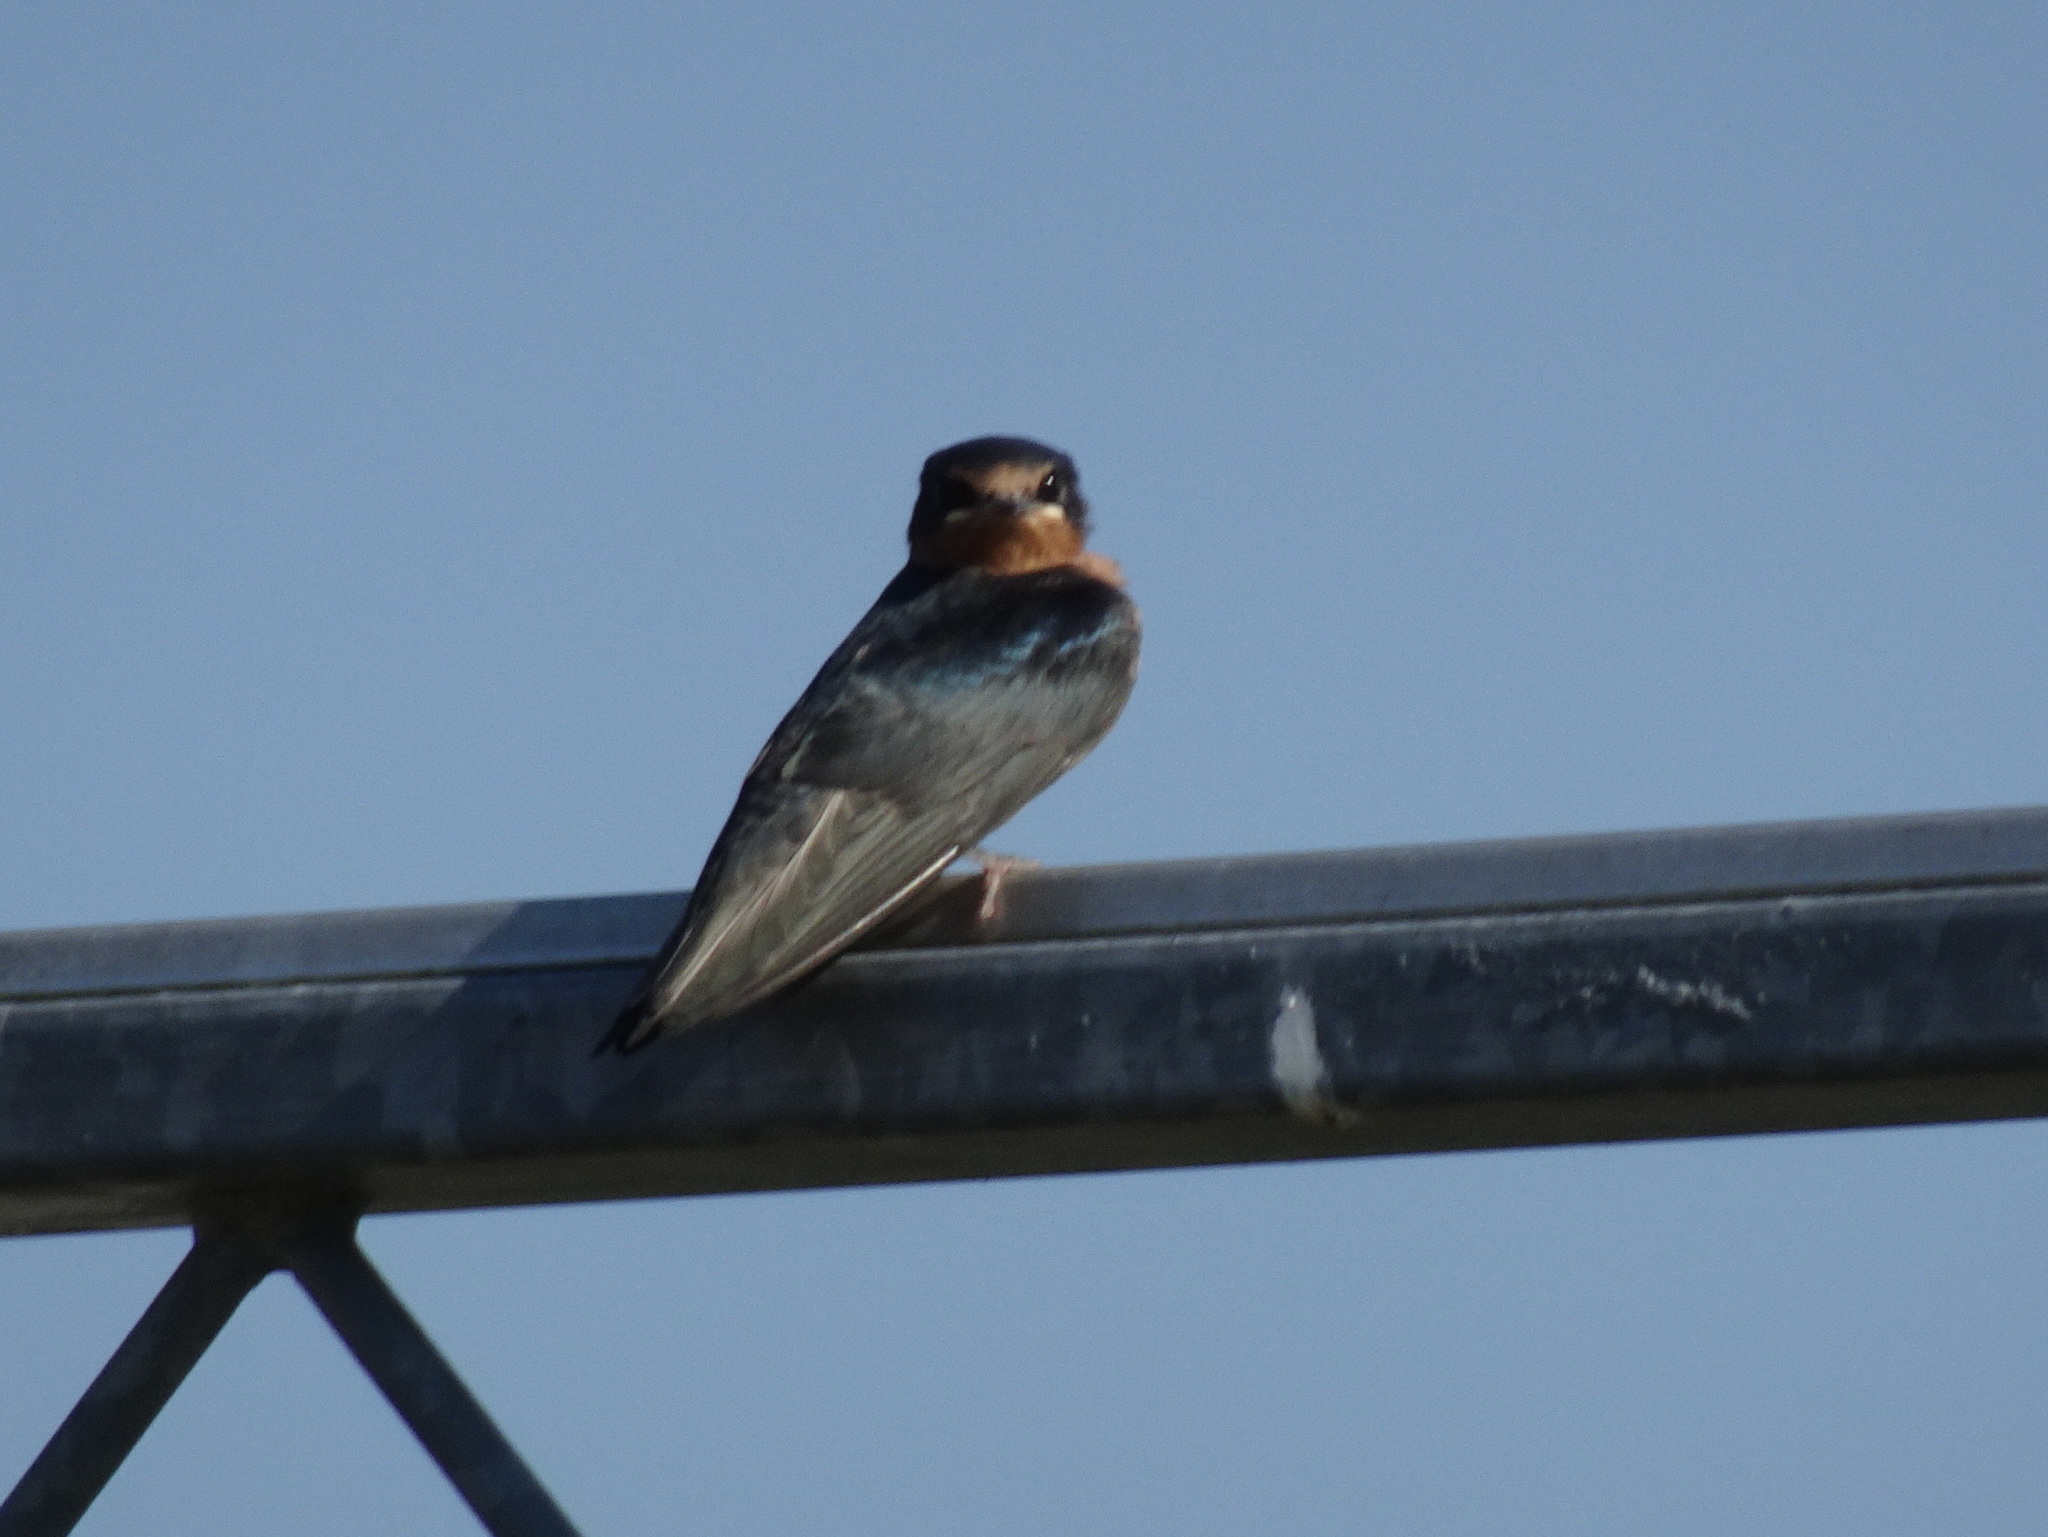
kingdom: Animalia
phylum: Chordata
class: Aves
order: Passeriformes
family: Hirundinidae
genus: Hirundo
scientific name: Hirundo rustica
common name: Barn swallow
